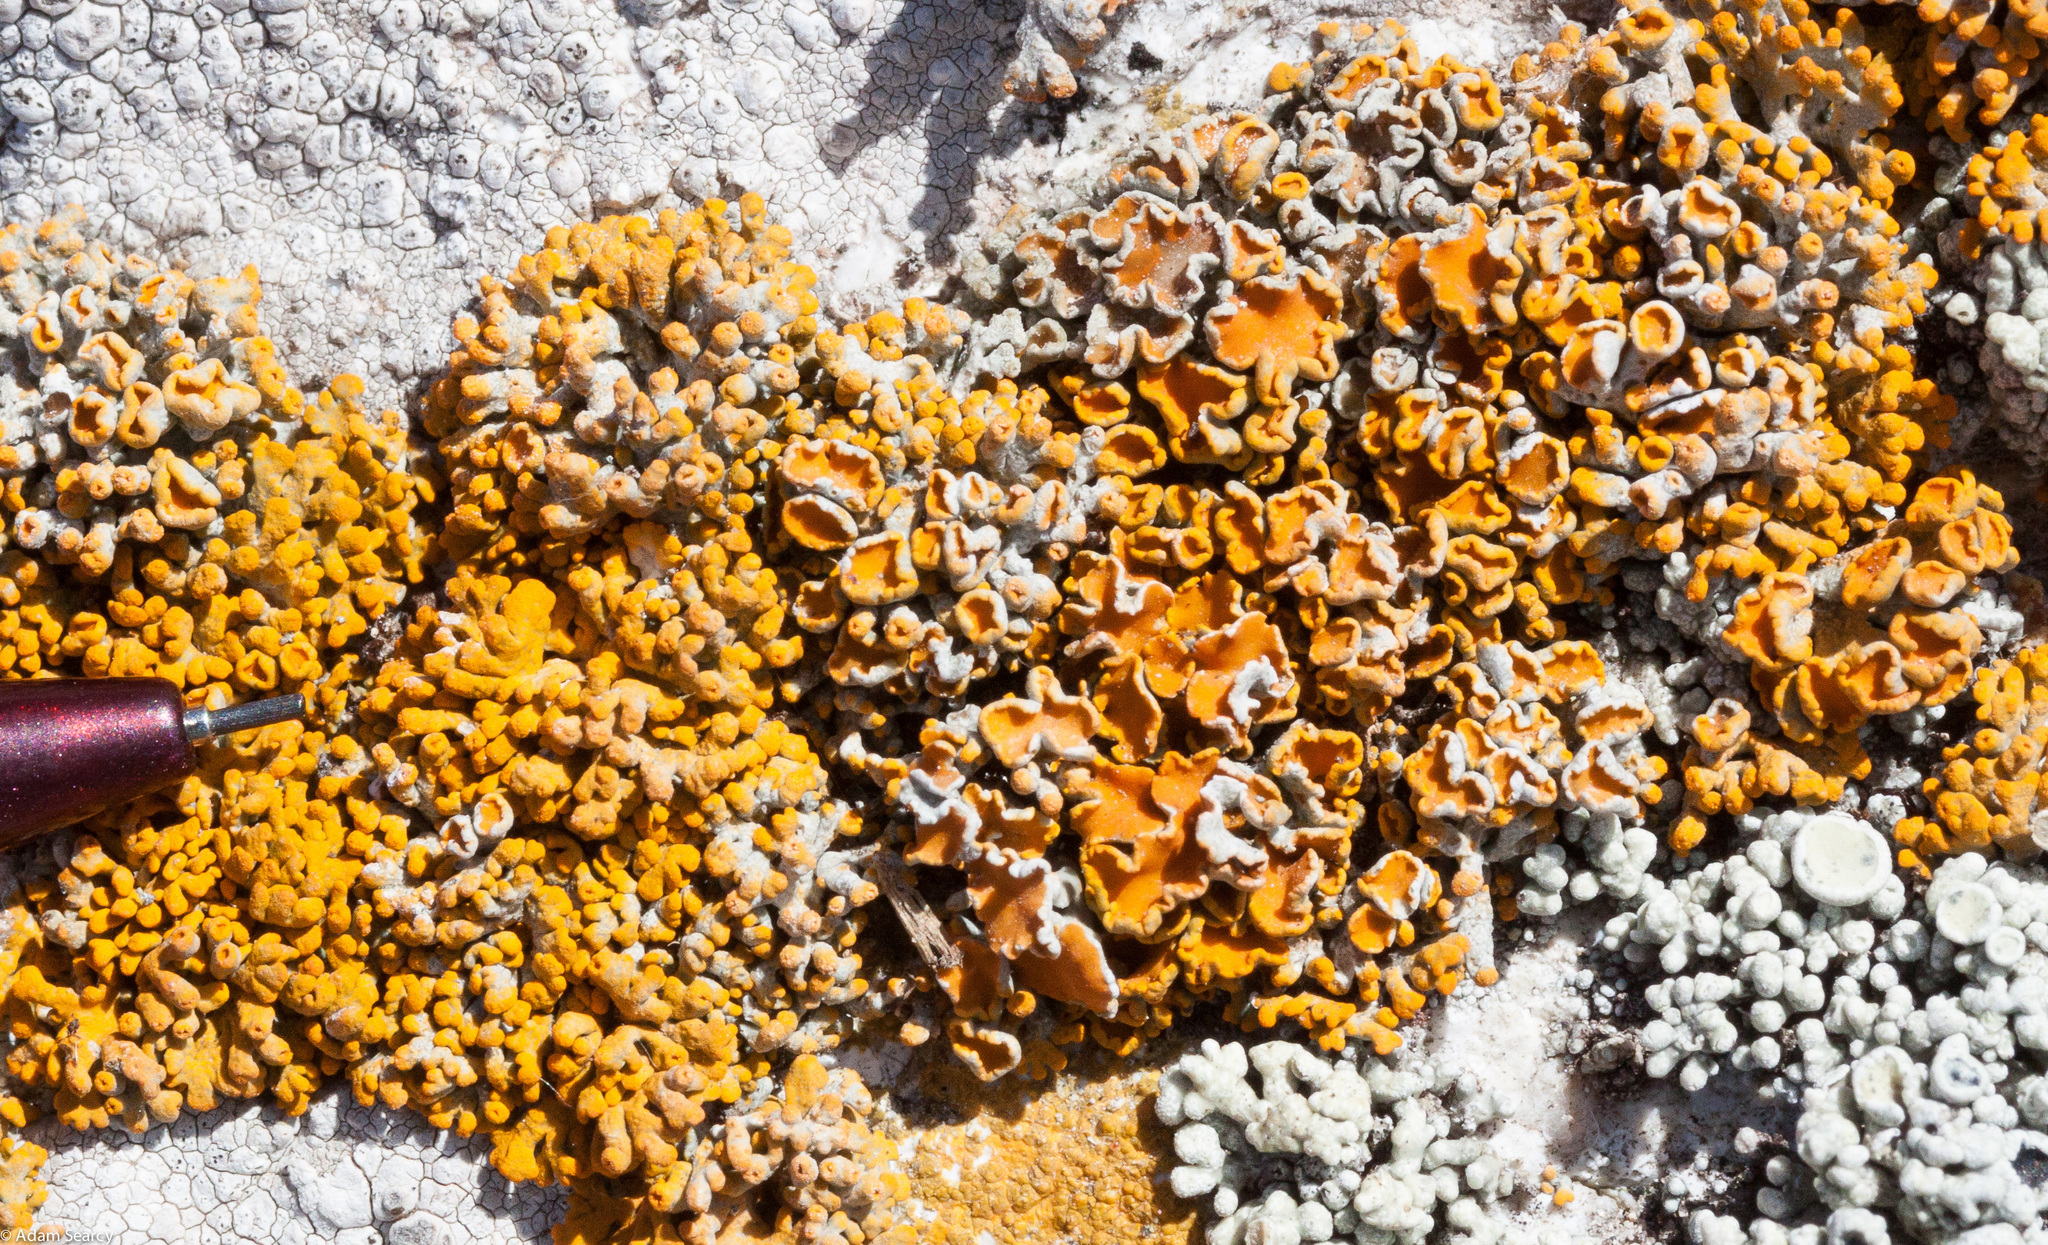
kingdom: Fungi
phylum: Ascomycota
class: Lecanoromycetes
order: Lecanorales
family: Lecanoraceae
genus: Edrudia
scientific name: Edrudia constipans
